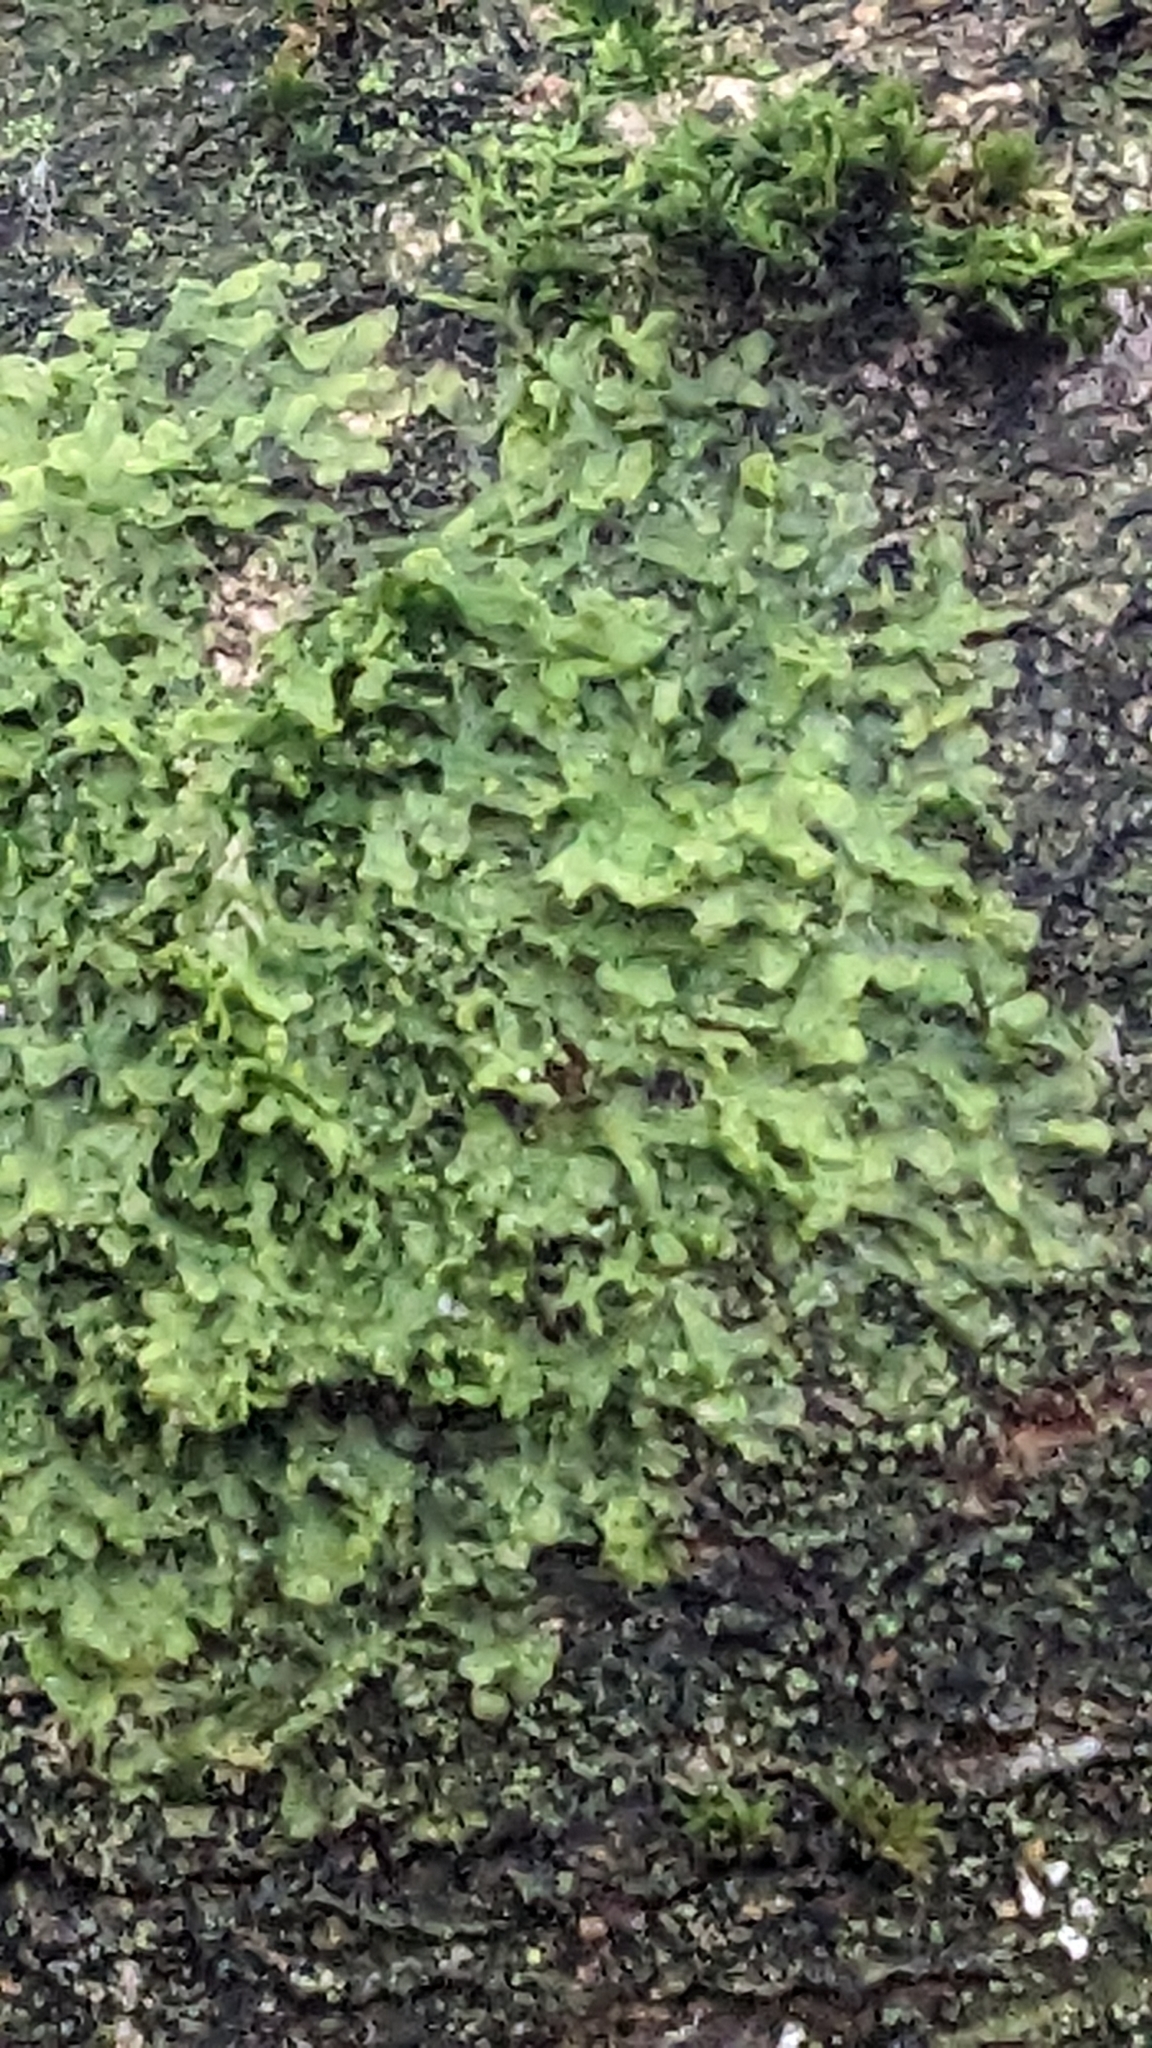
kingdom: Plantae
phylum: Marchantiophyta
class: Jungermanniopsida
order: Metzgeriales
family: Metzgeriaceae
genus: Metzgeria
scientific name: Metzgeria furcata
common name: Forked veilwort
